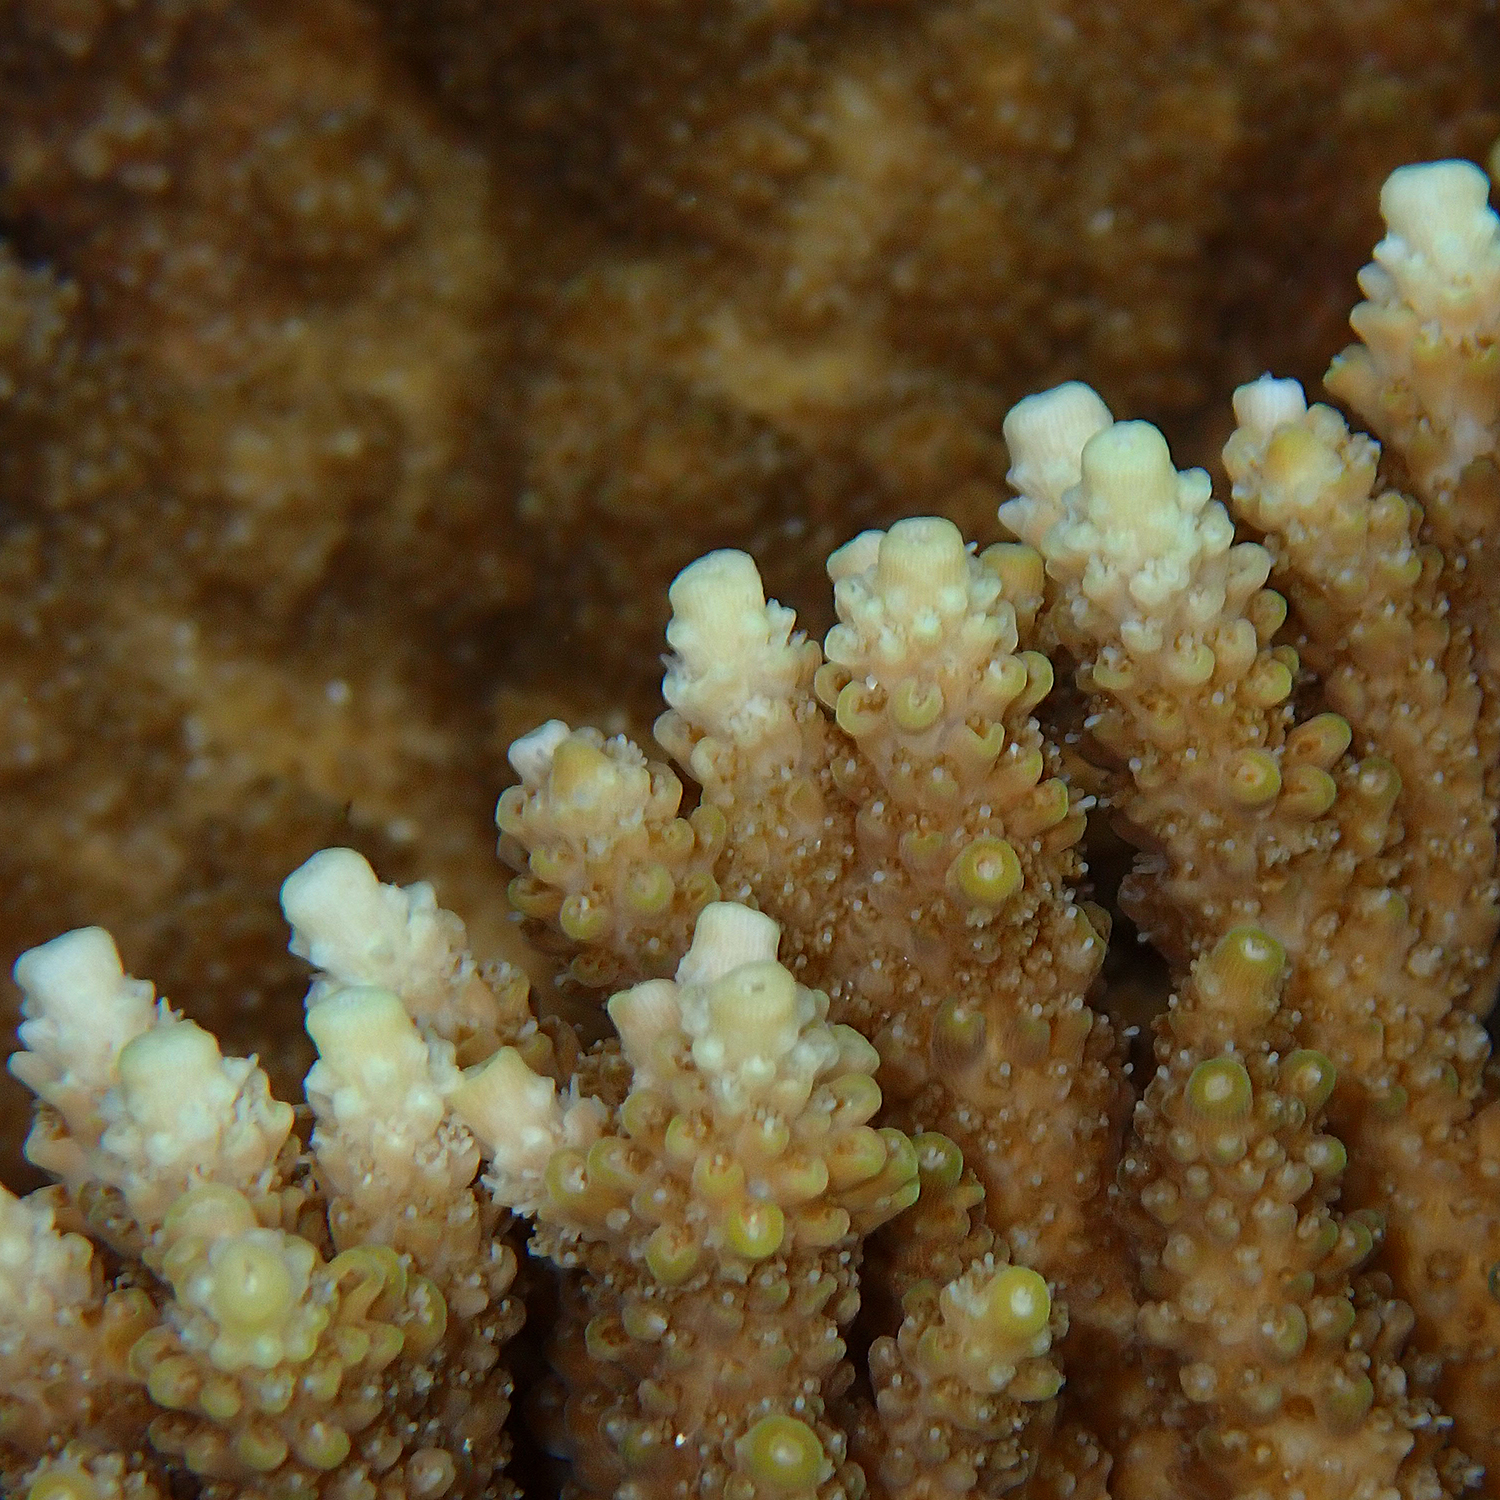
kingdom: Animalia
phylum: Cnidaria
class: Anthozoa
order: Scleractinia
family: Acroporidae
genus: Acropora
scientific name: Acropora solitaryensis
